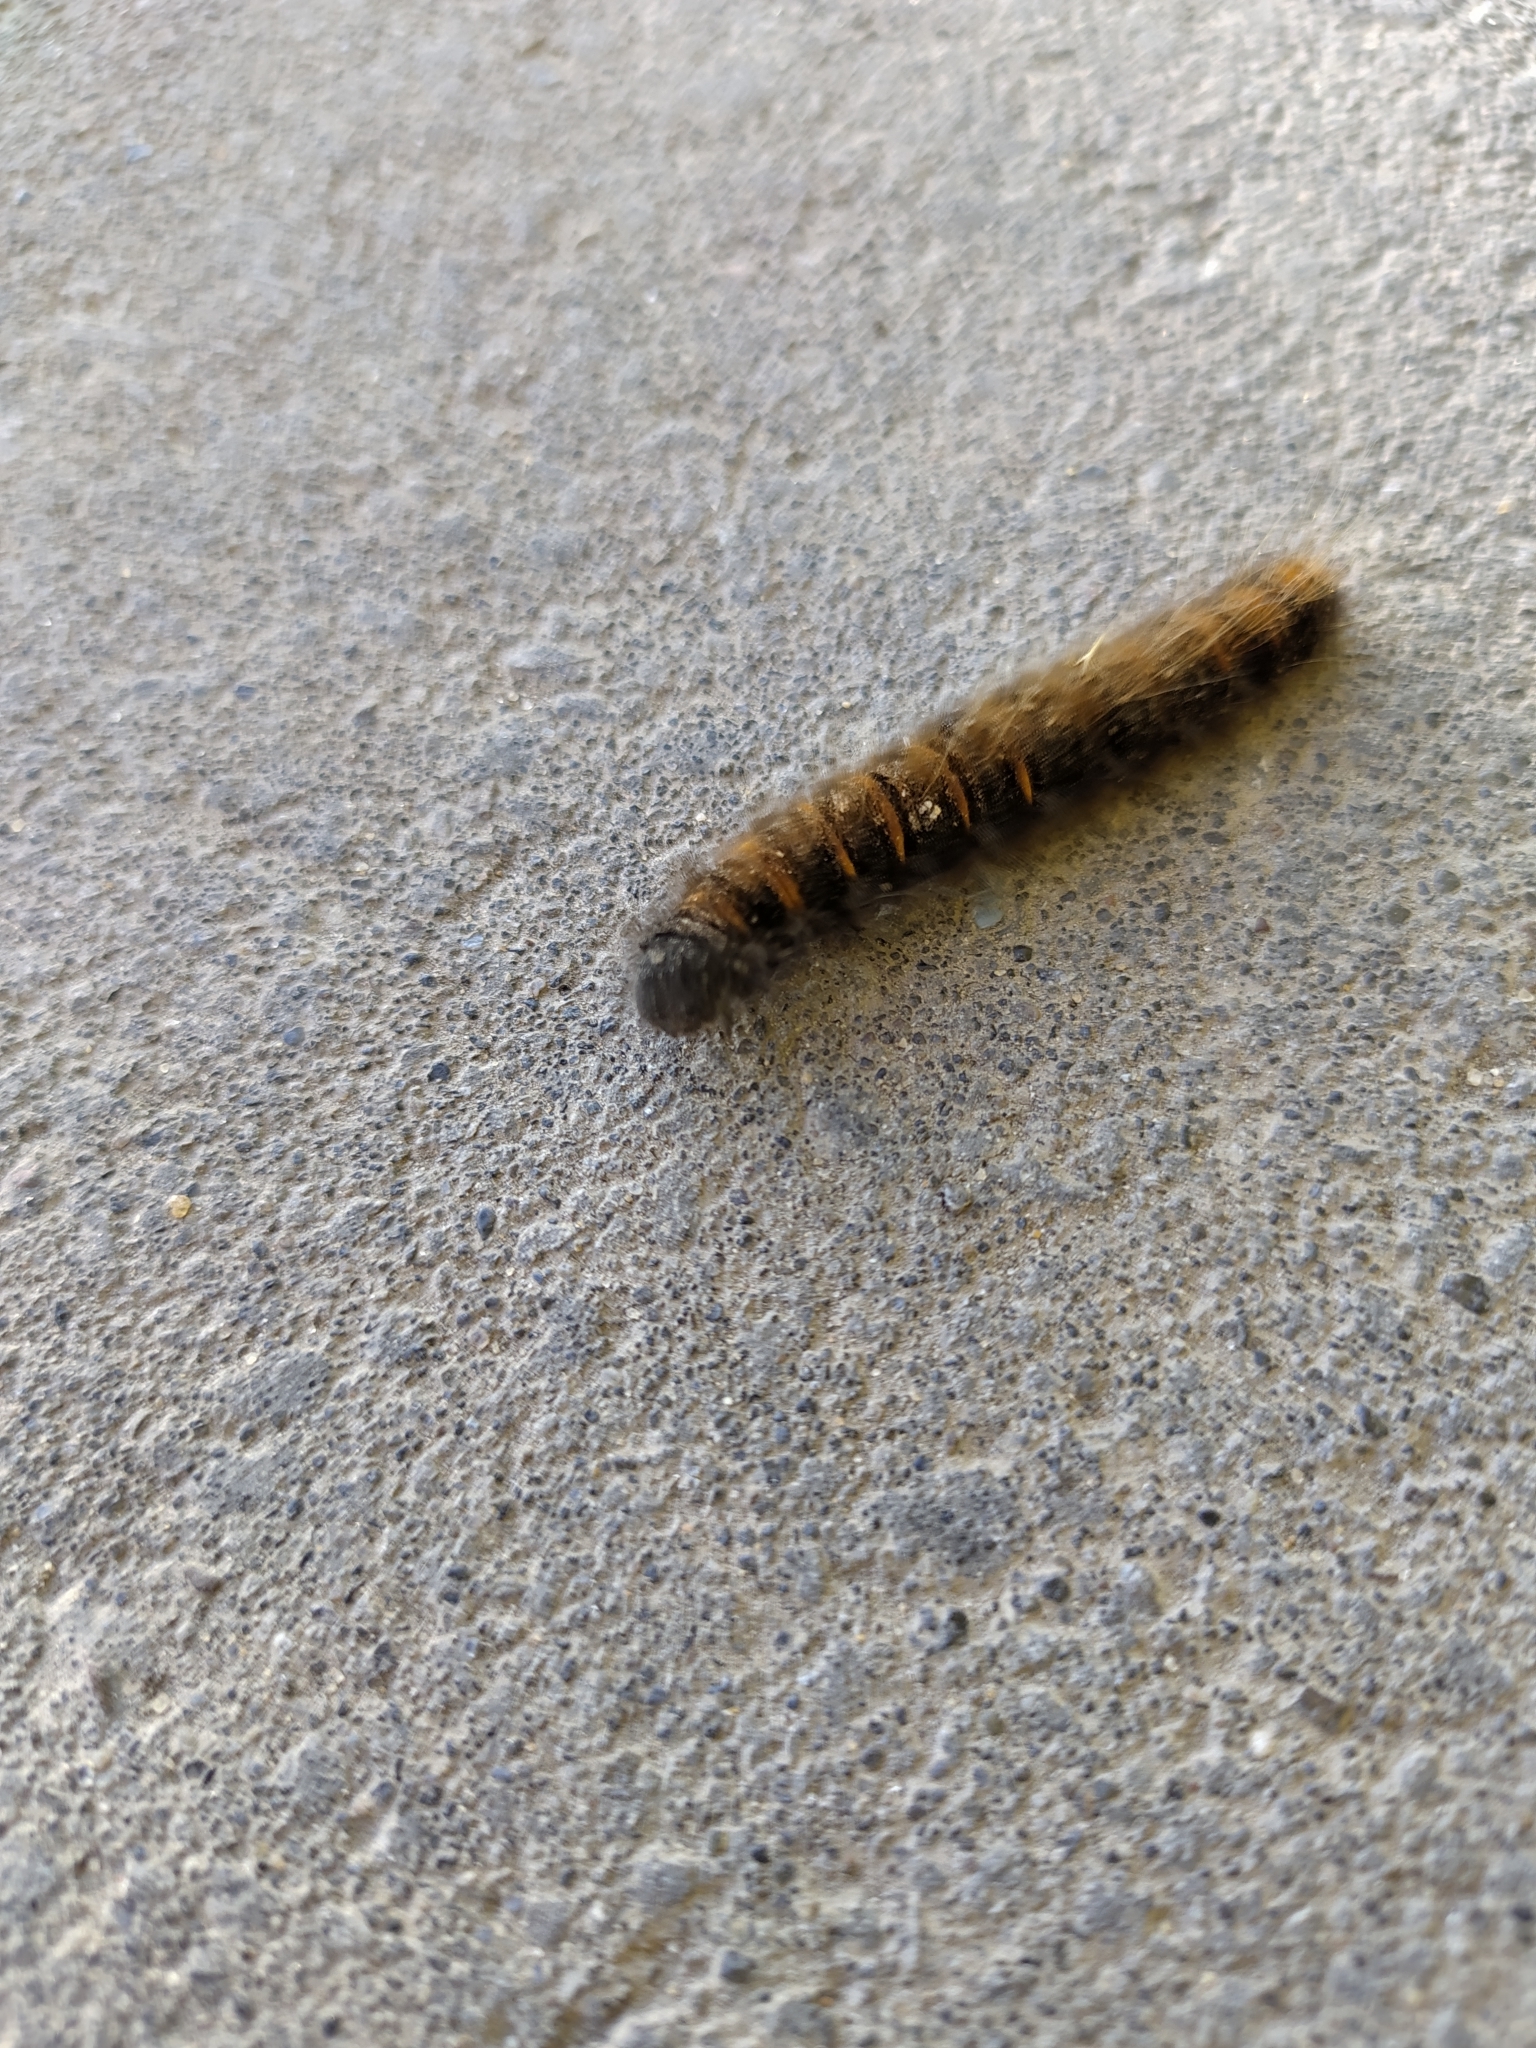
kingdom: Animalia
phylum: Arthropoda
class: Insecta
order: Lepidoptera
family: Lasiocampidae
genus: Macrothylacia
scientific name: Macrothylacia rubi
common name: Fox moth
